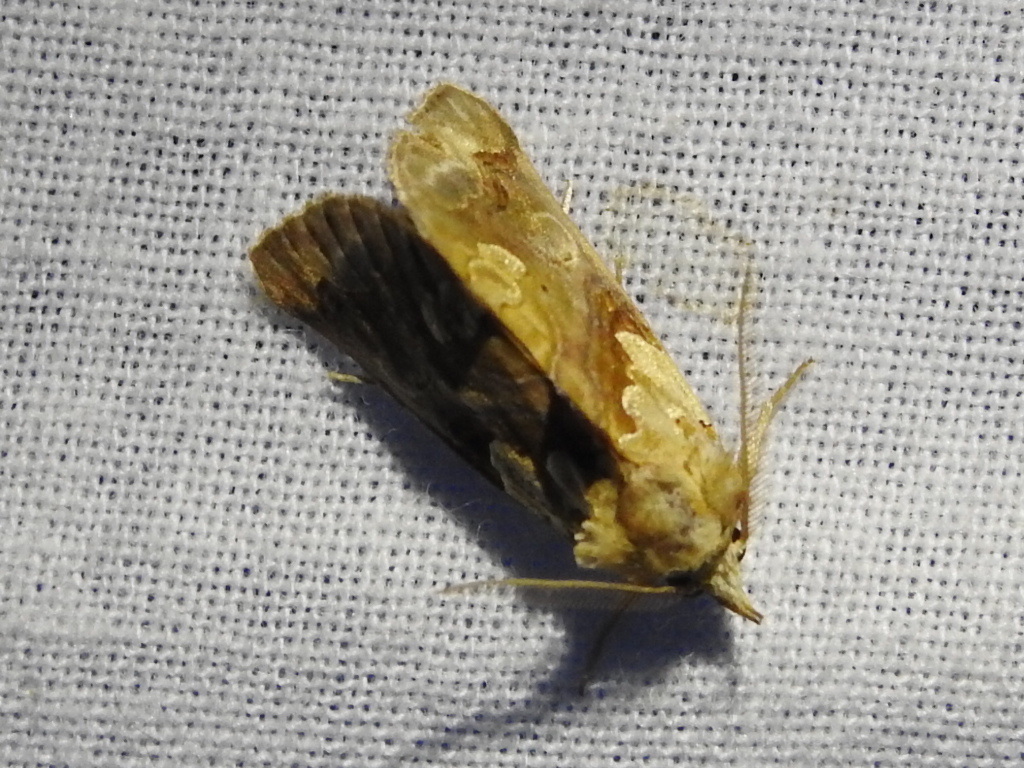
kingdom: Animalia
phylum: Arthropoda
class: Insecta
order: Lepidoptera
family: Erebidae
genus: Plusiodonta
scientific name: Plusiodonta compressipalpis
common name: Moonseed moth
